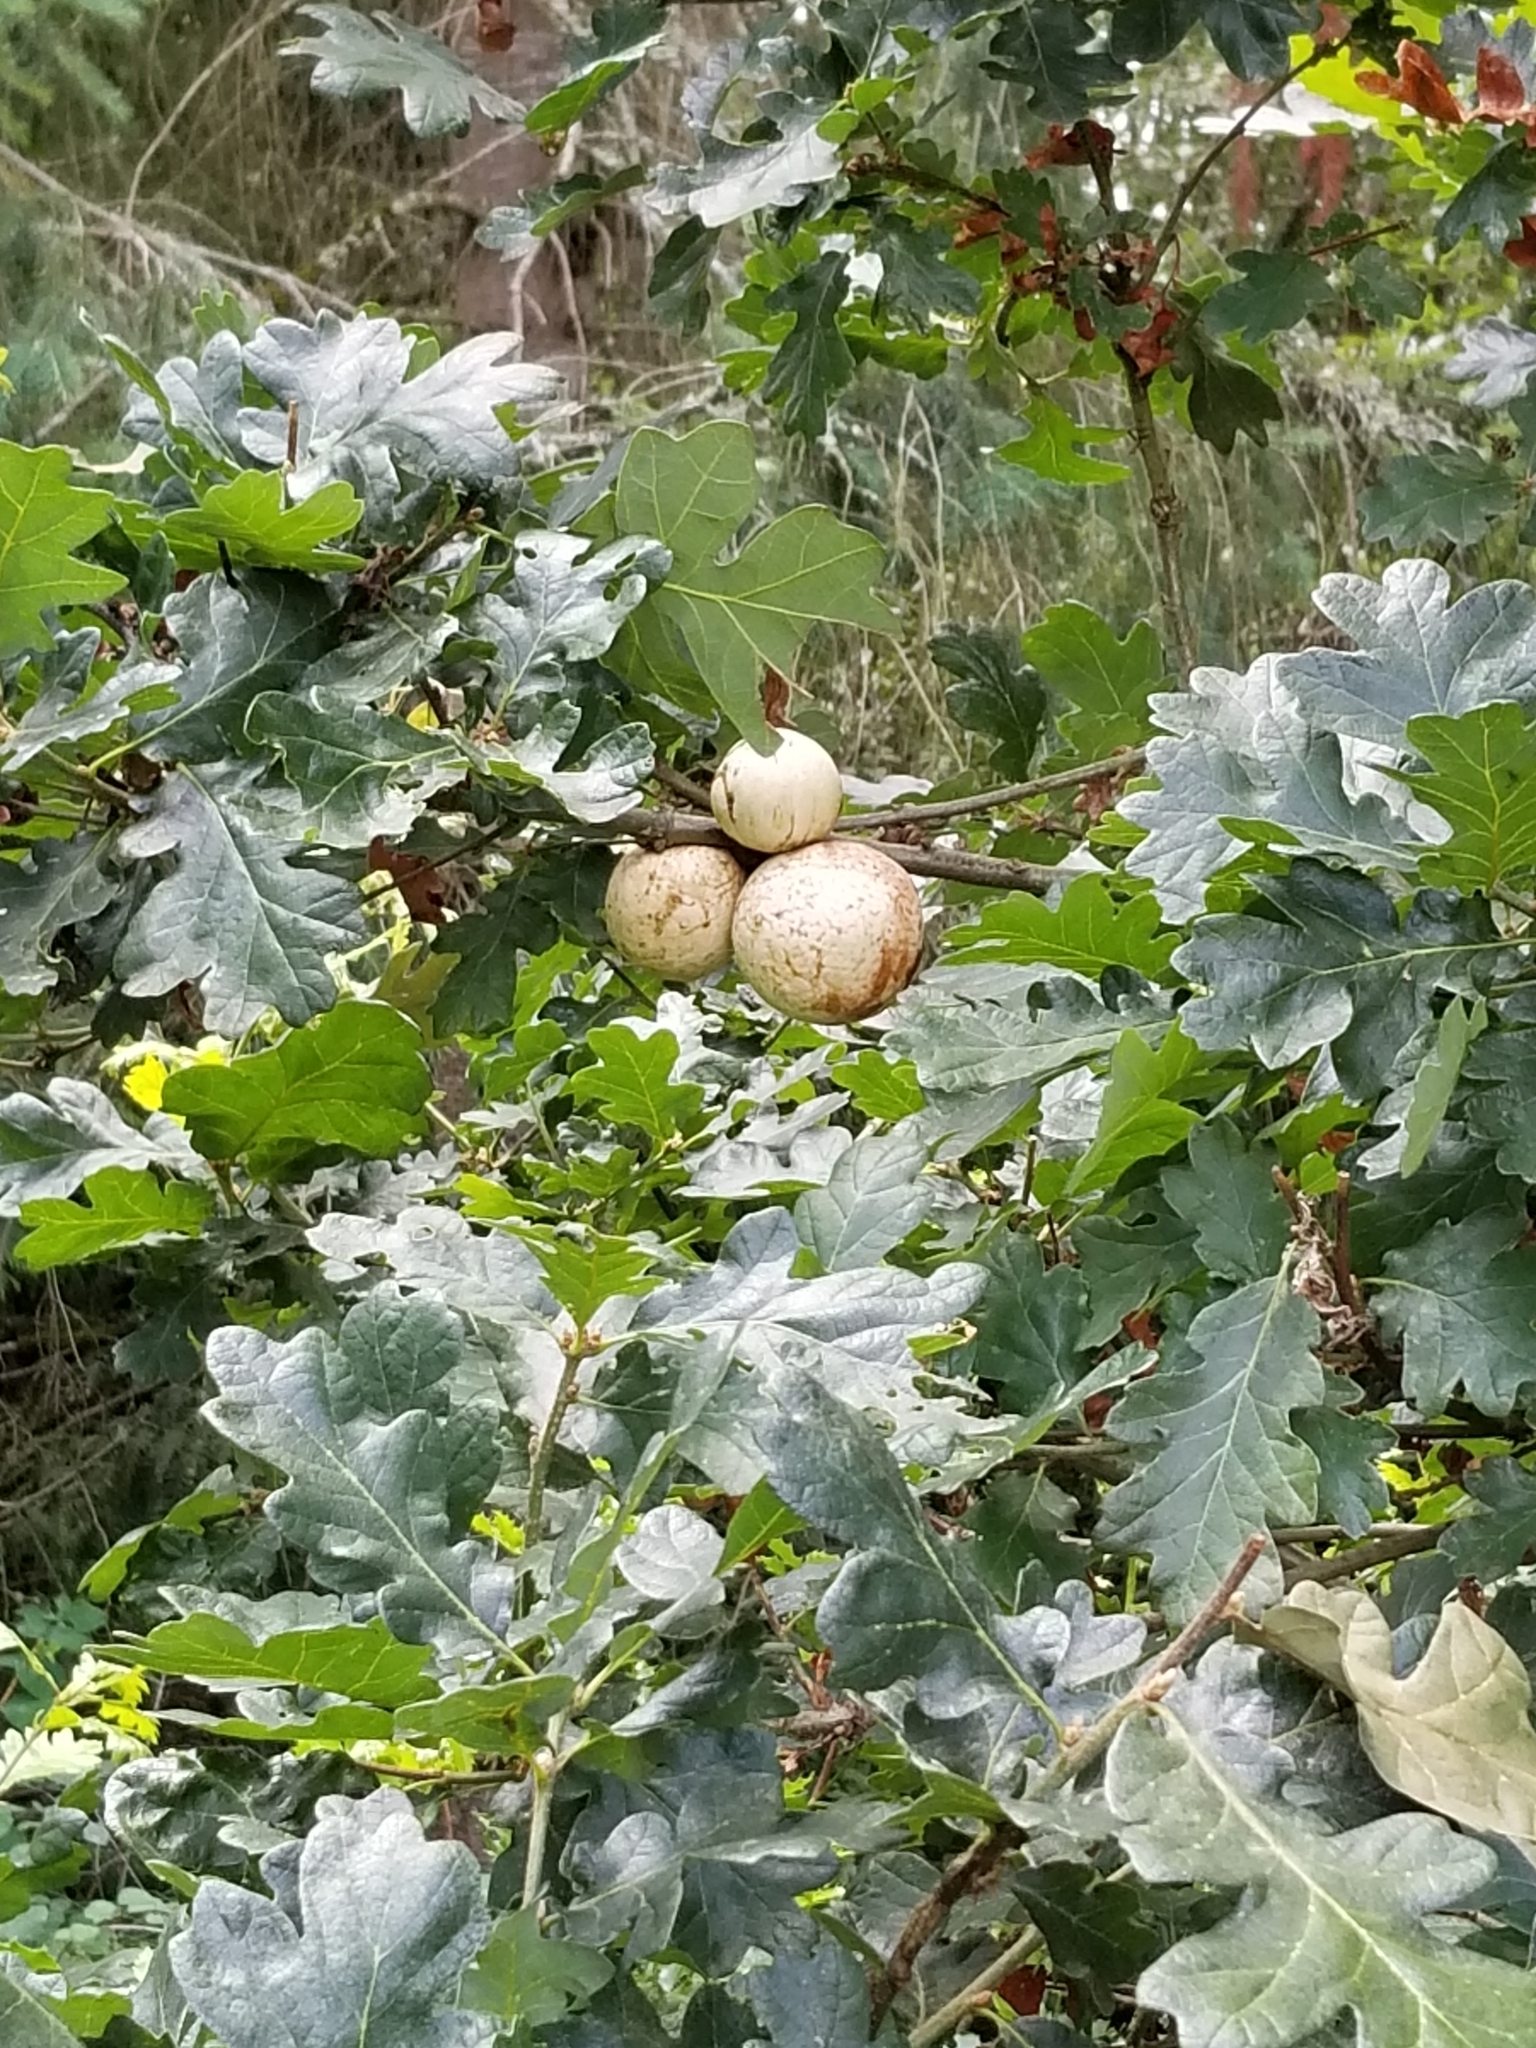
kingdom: Plantae
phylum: Tracheophyta
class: Magnoliopsida
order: Fagales
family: Fagaceae
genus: Quercus
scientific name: Quercus garryana
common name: Garry oak
